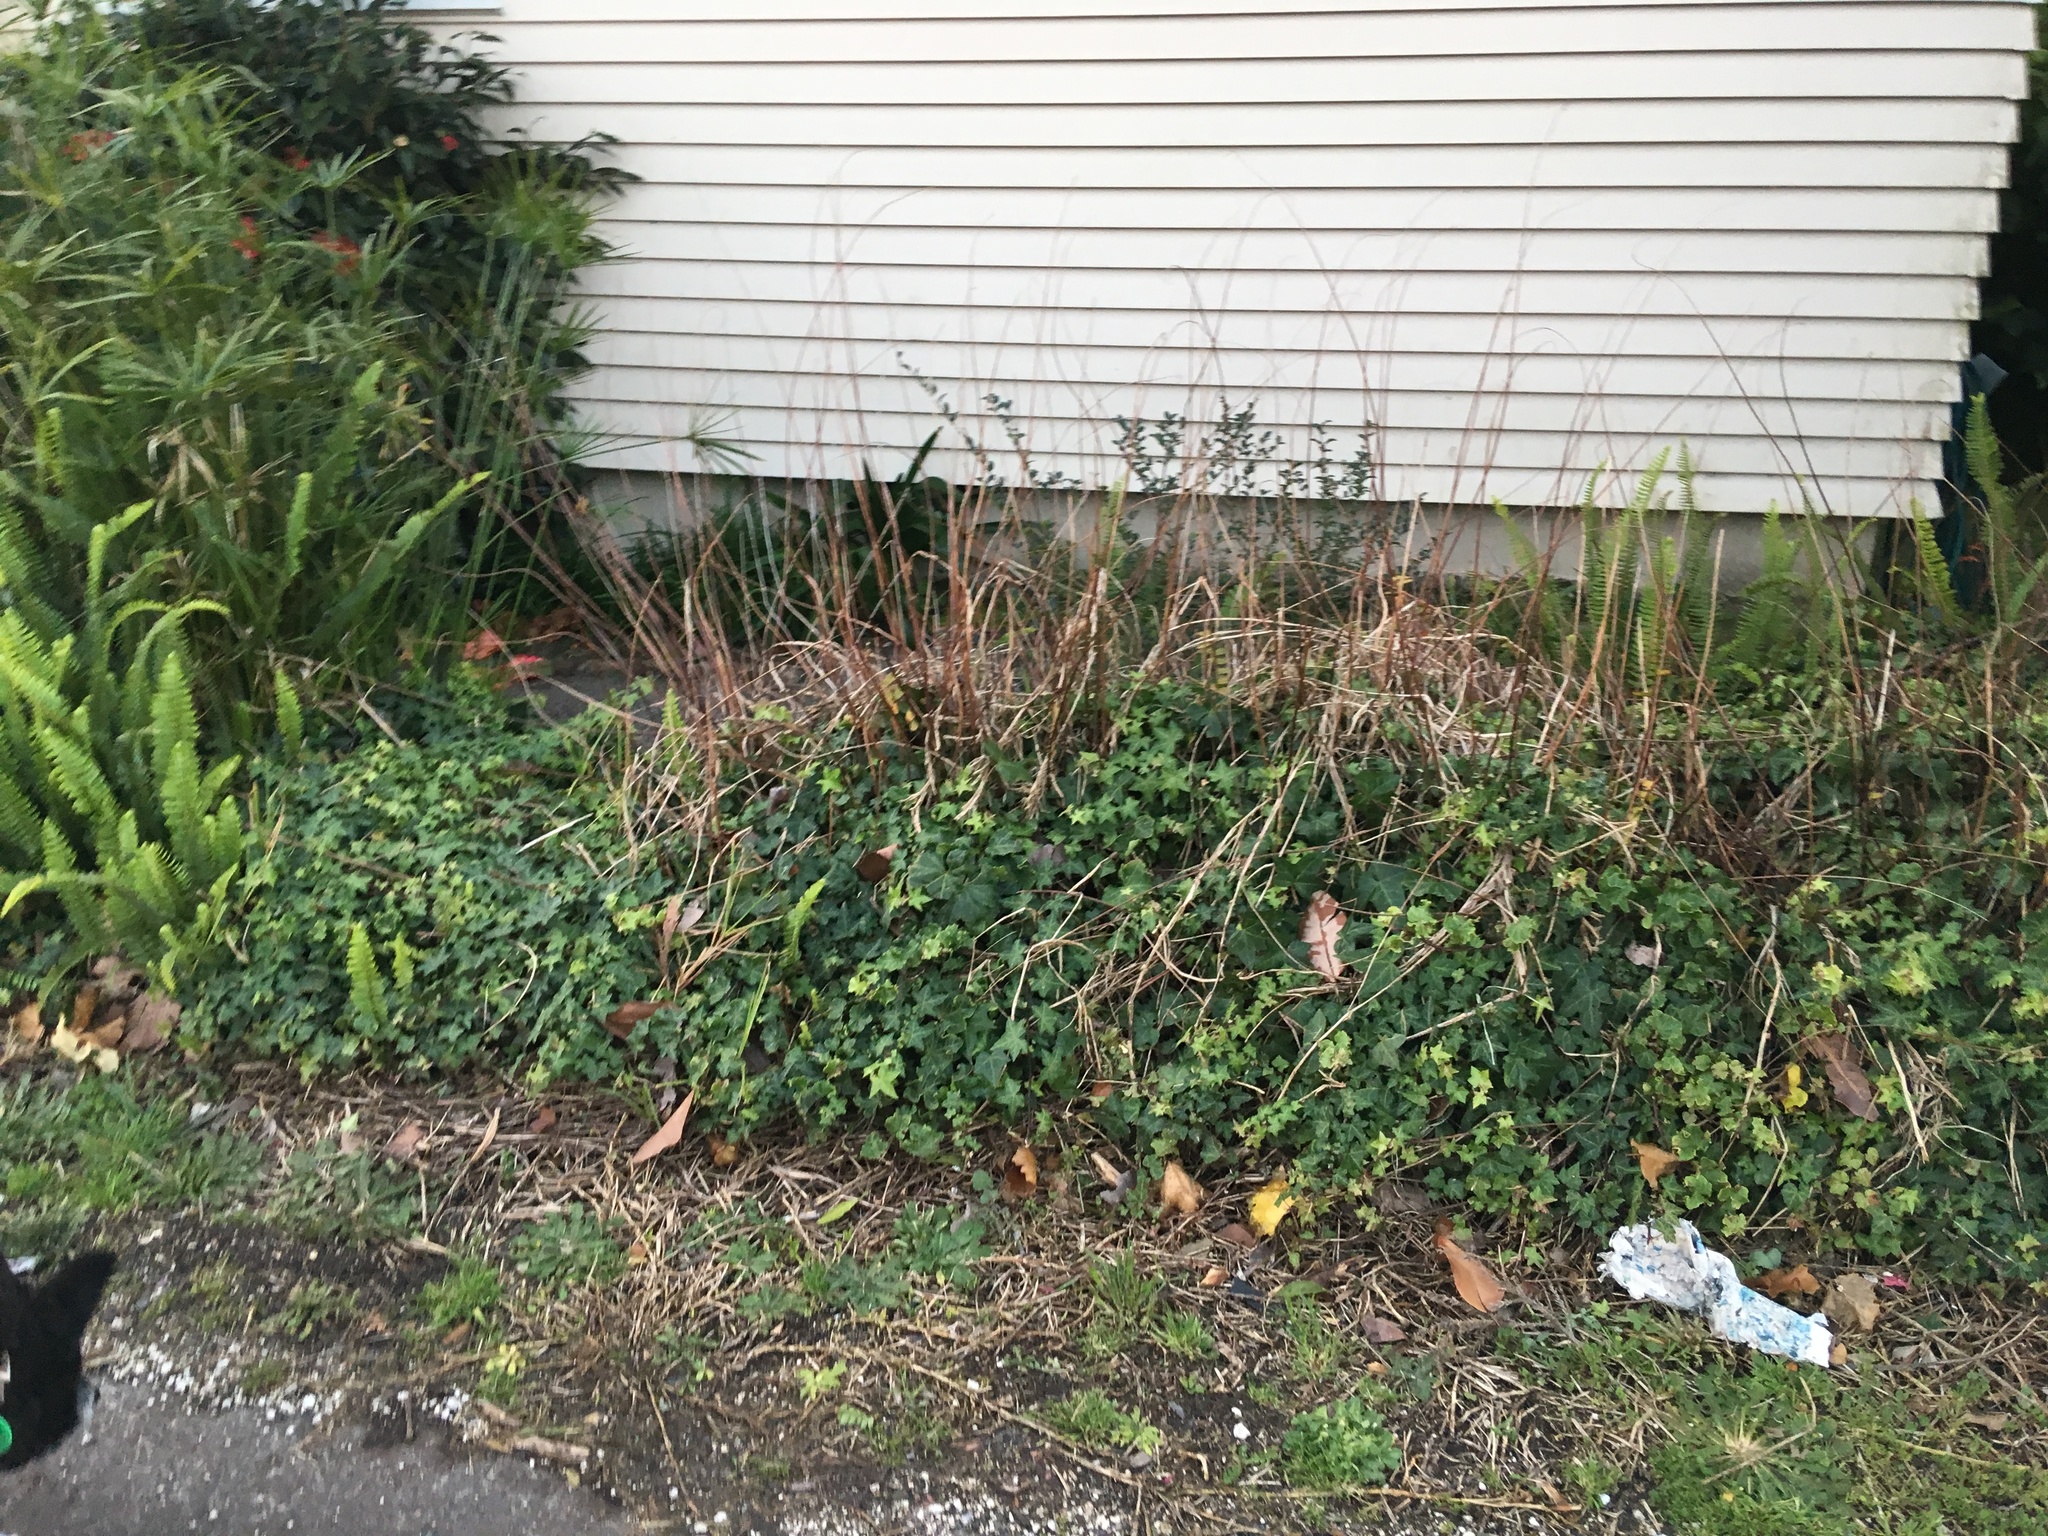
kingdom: Plantae
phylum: Tracheophyta
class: Liliopsida
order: Poales
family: Cyperaceae
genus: Cyperus
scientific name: Cyperus alternifolius
